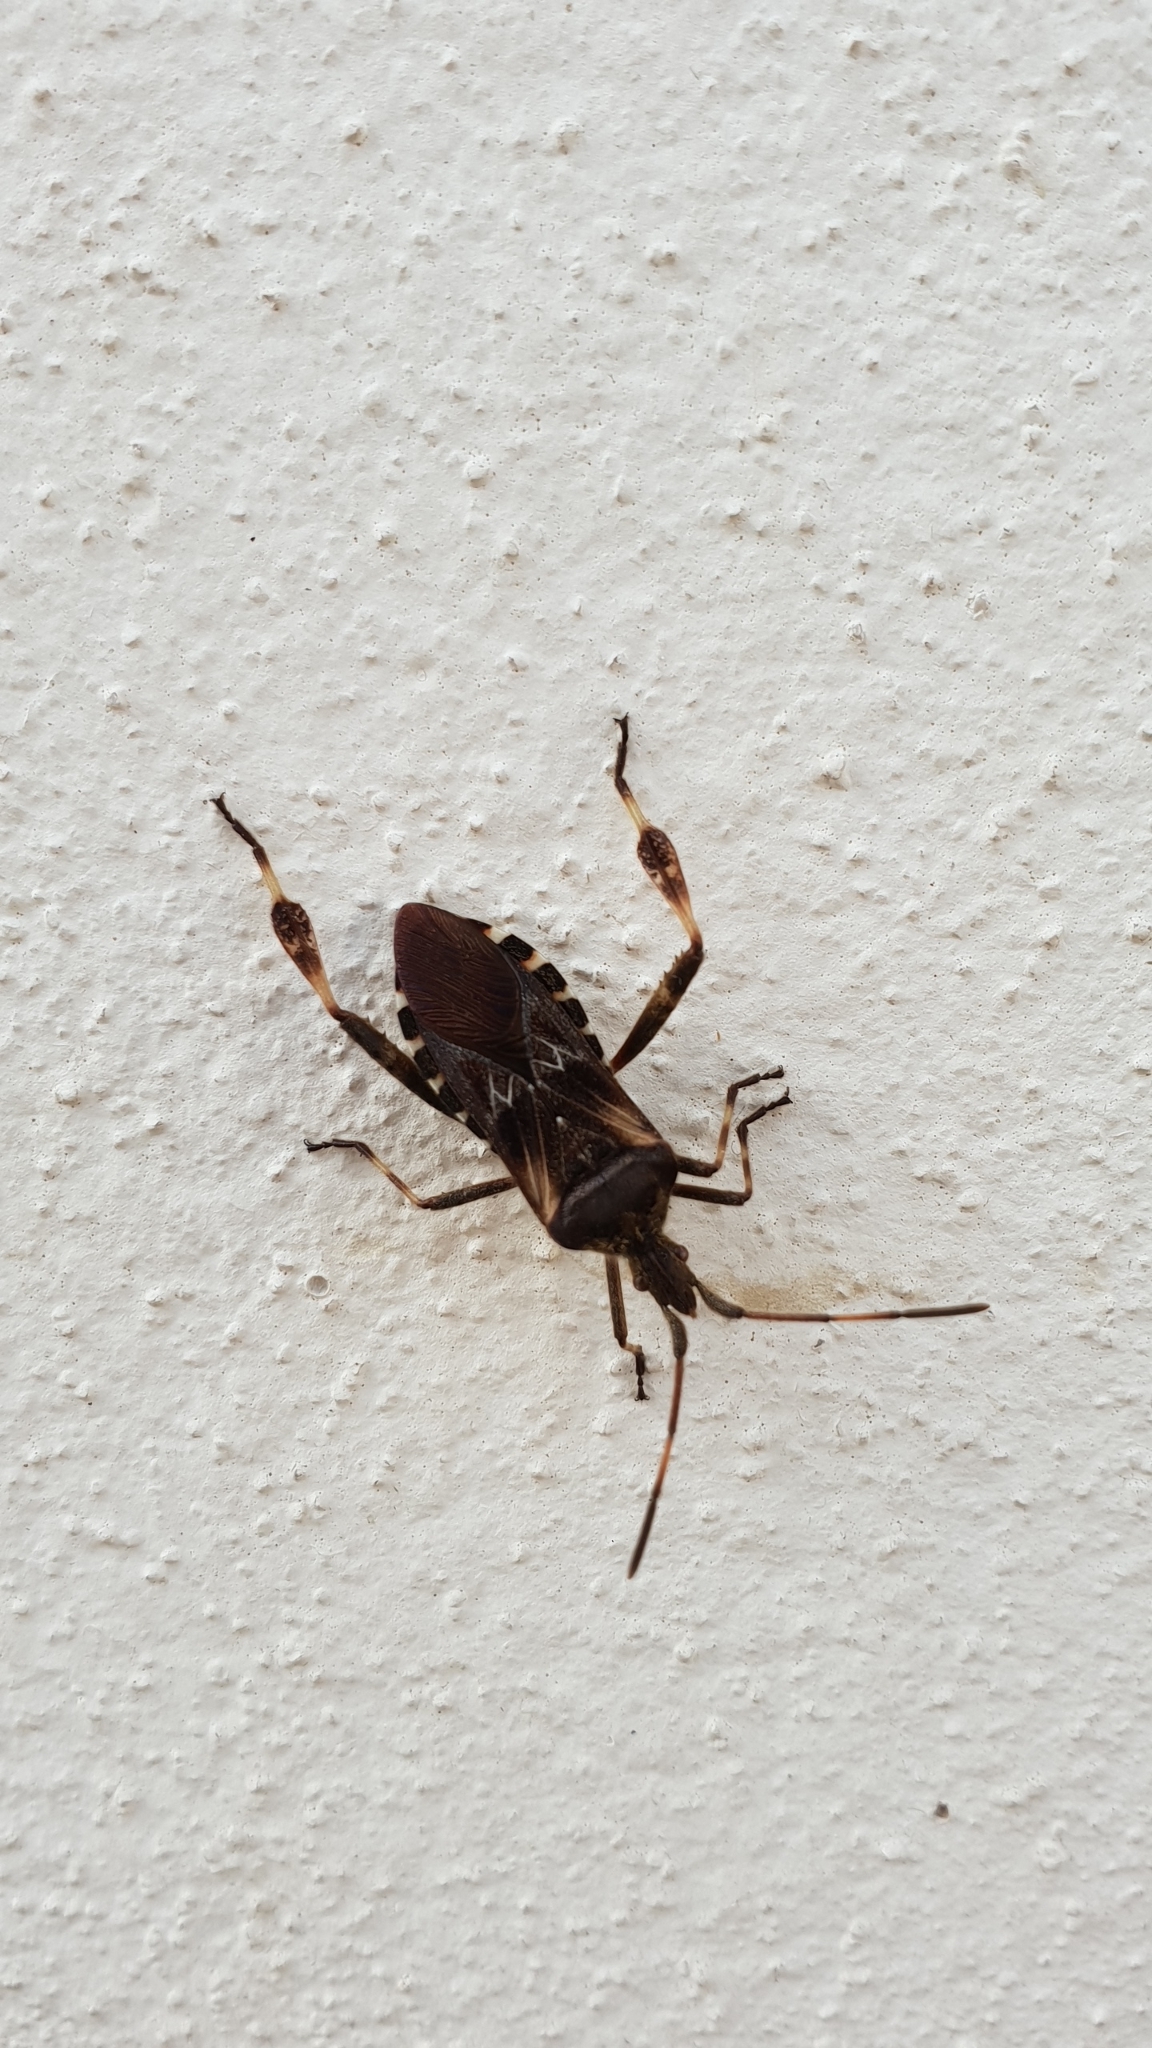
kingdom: Animalia
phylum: Arthropoda
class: Insecta
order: Hemiptera
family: Coreidae
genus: Leptoglossus
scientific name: Leptoglossus occidentalis
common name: Western conifer-seed bug
